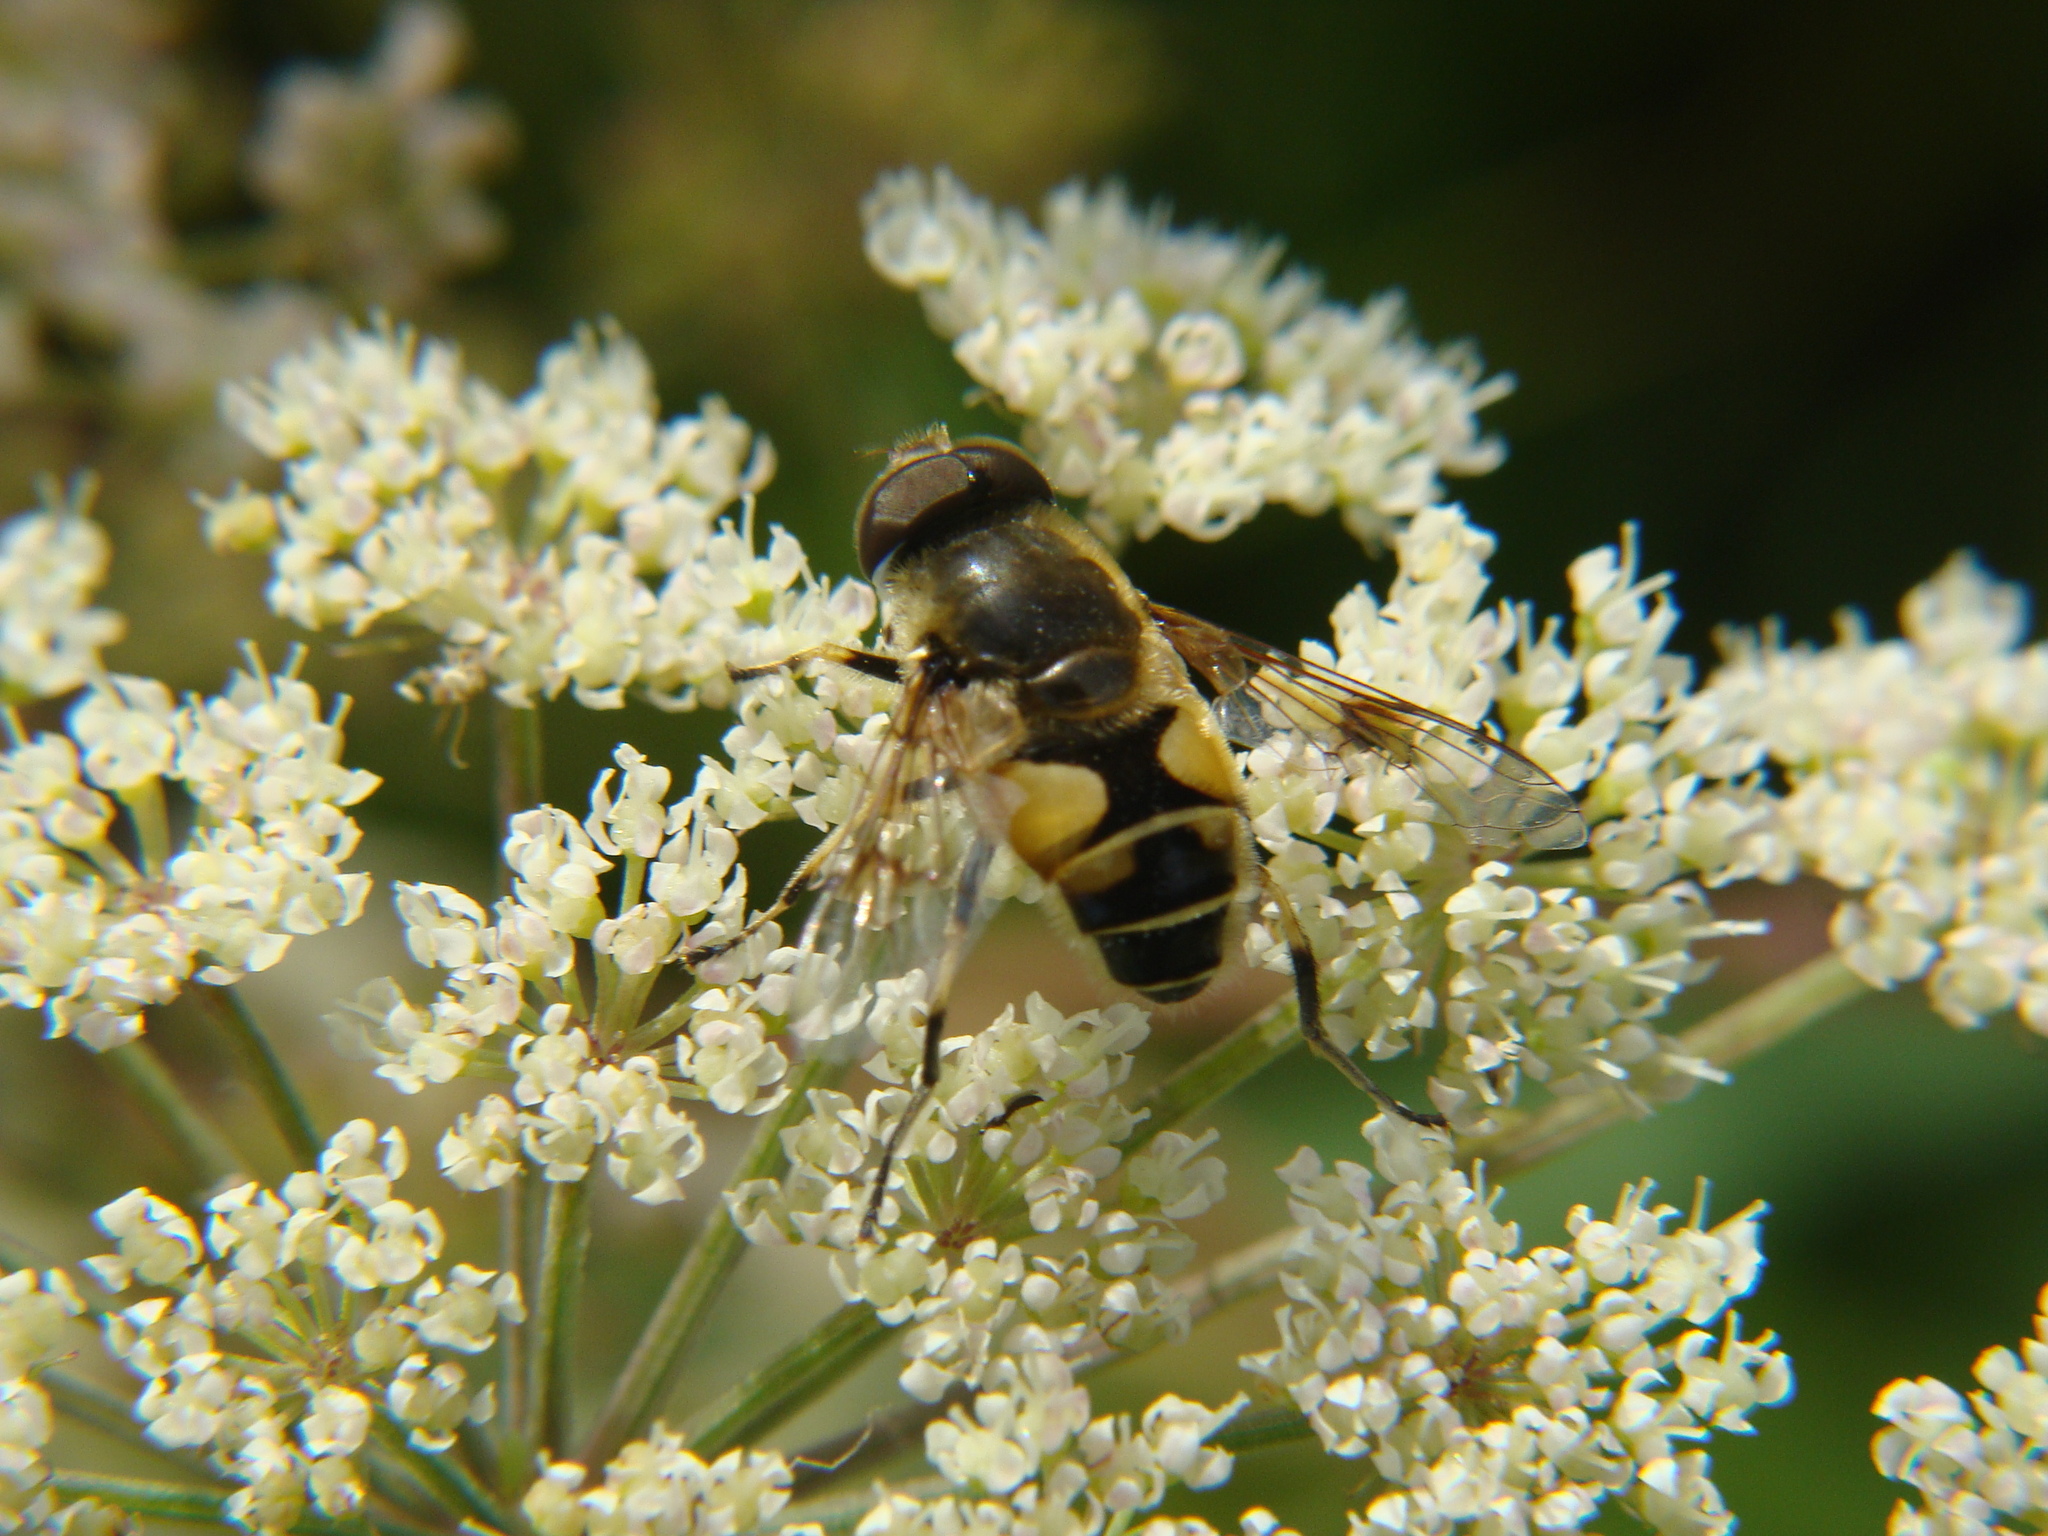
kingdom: Animalia
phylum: Arthropoda
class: Insecta
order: Diptera
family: Syrphidae
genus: Cheilosia
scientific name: Cheilosia morio
